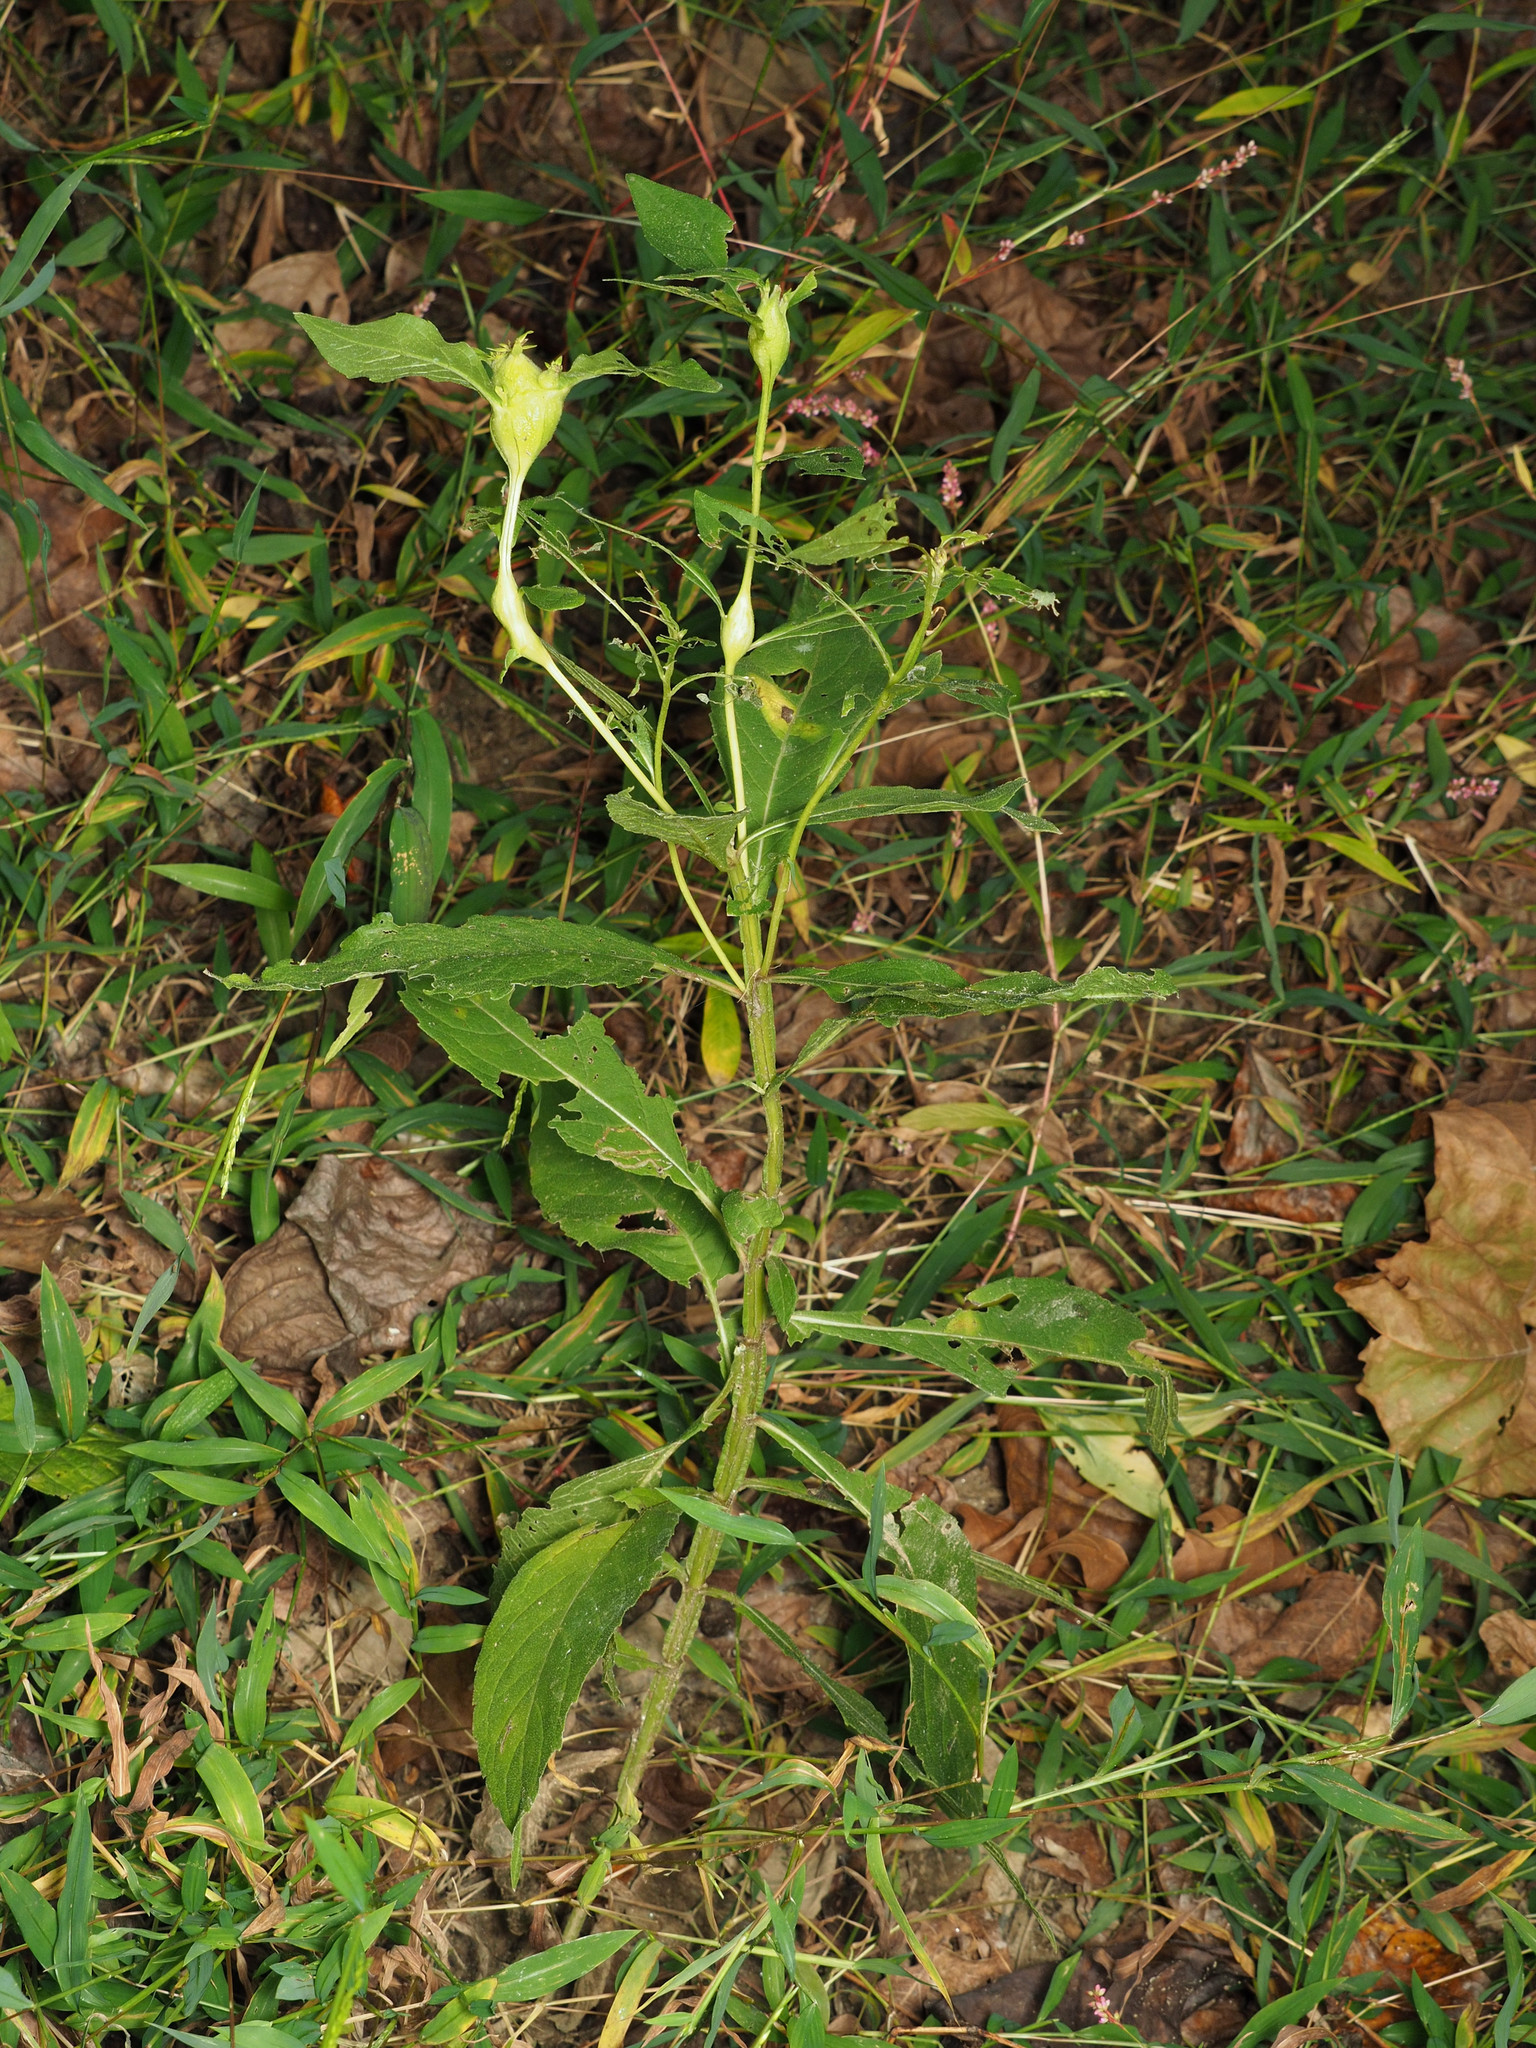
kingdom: Plantae
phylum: Tracheophyta
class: Magnoliopsida
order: Asterales
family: Asteraceae
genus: Verbesina
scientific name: Verbesina alternifolia
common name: Wingstem
